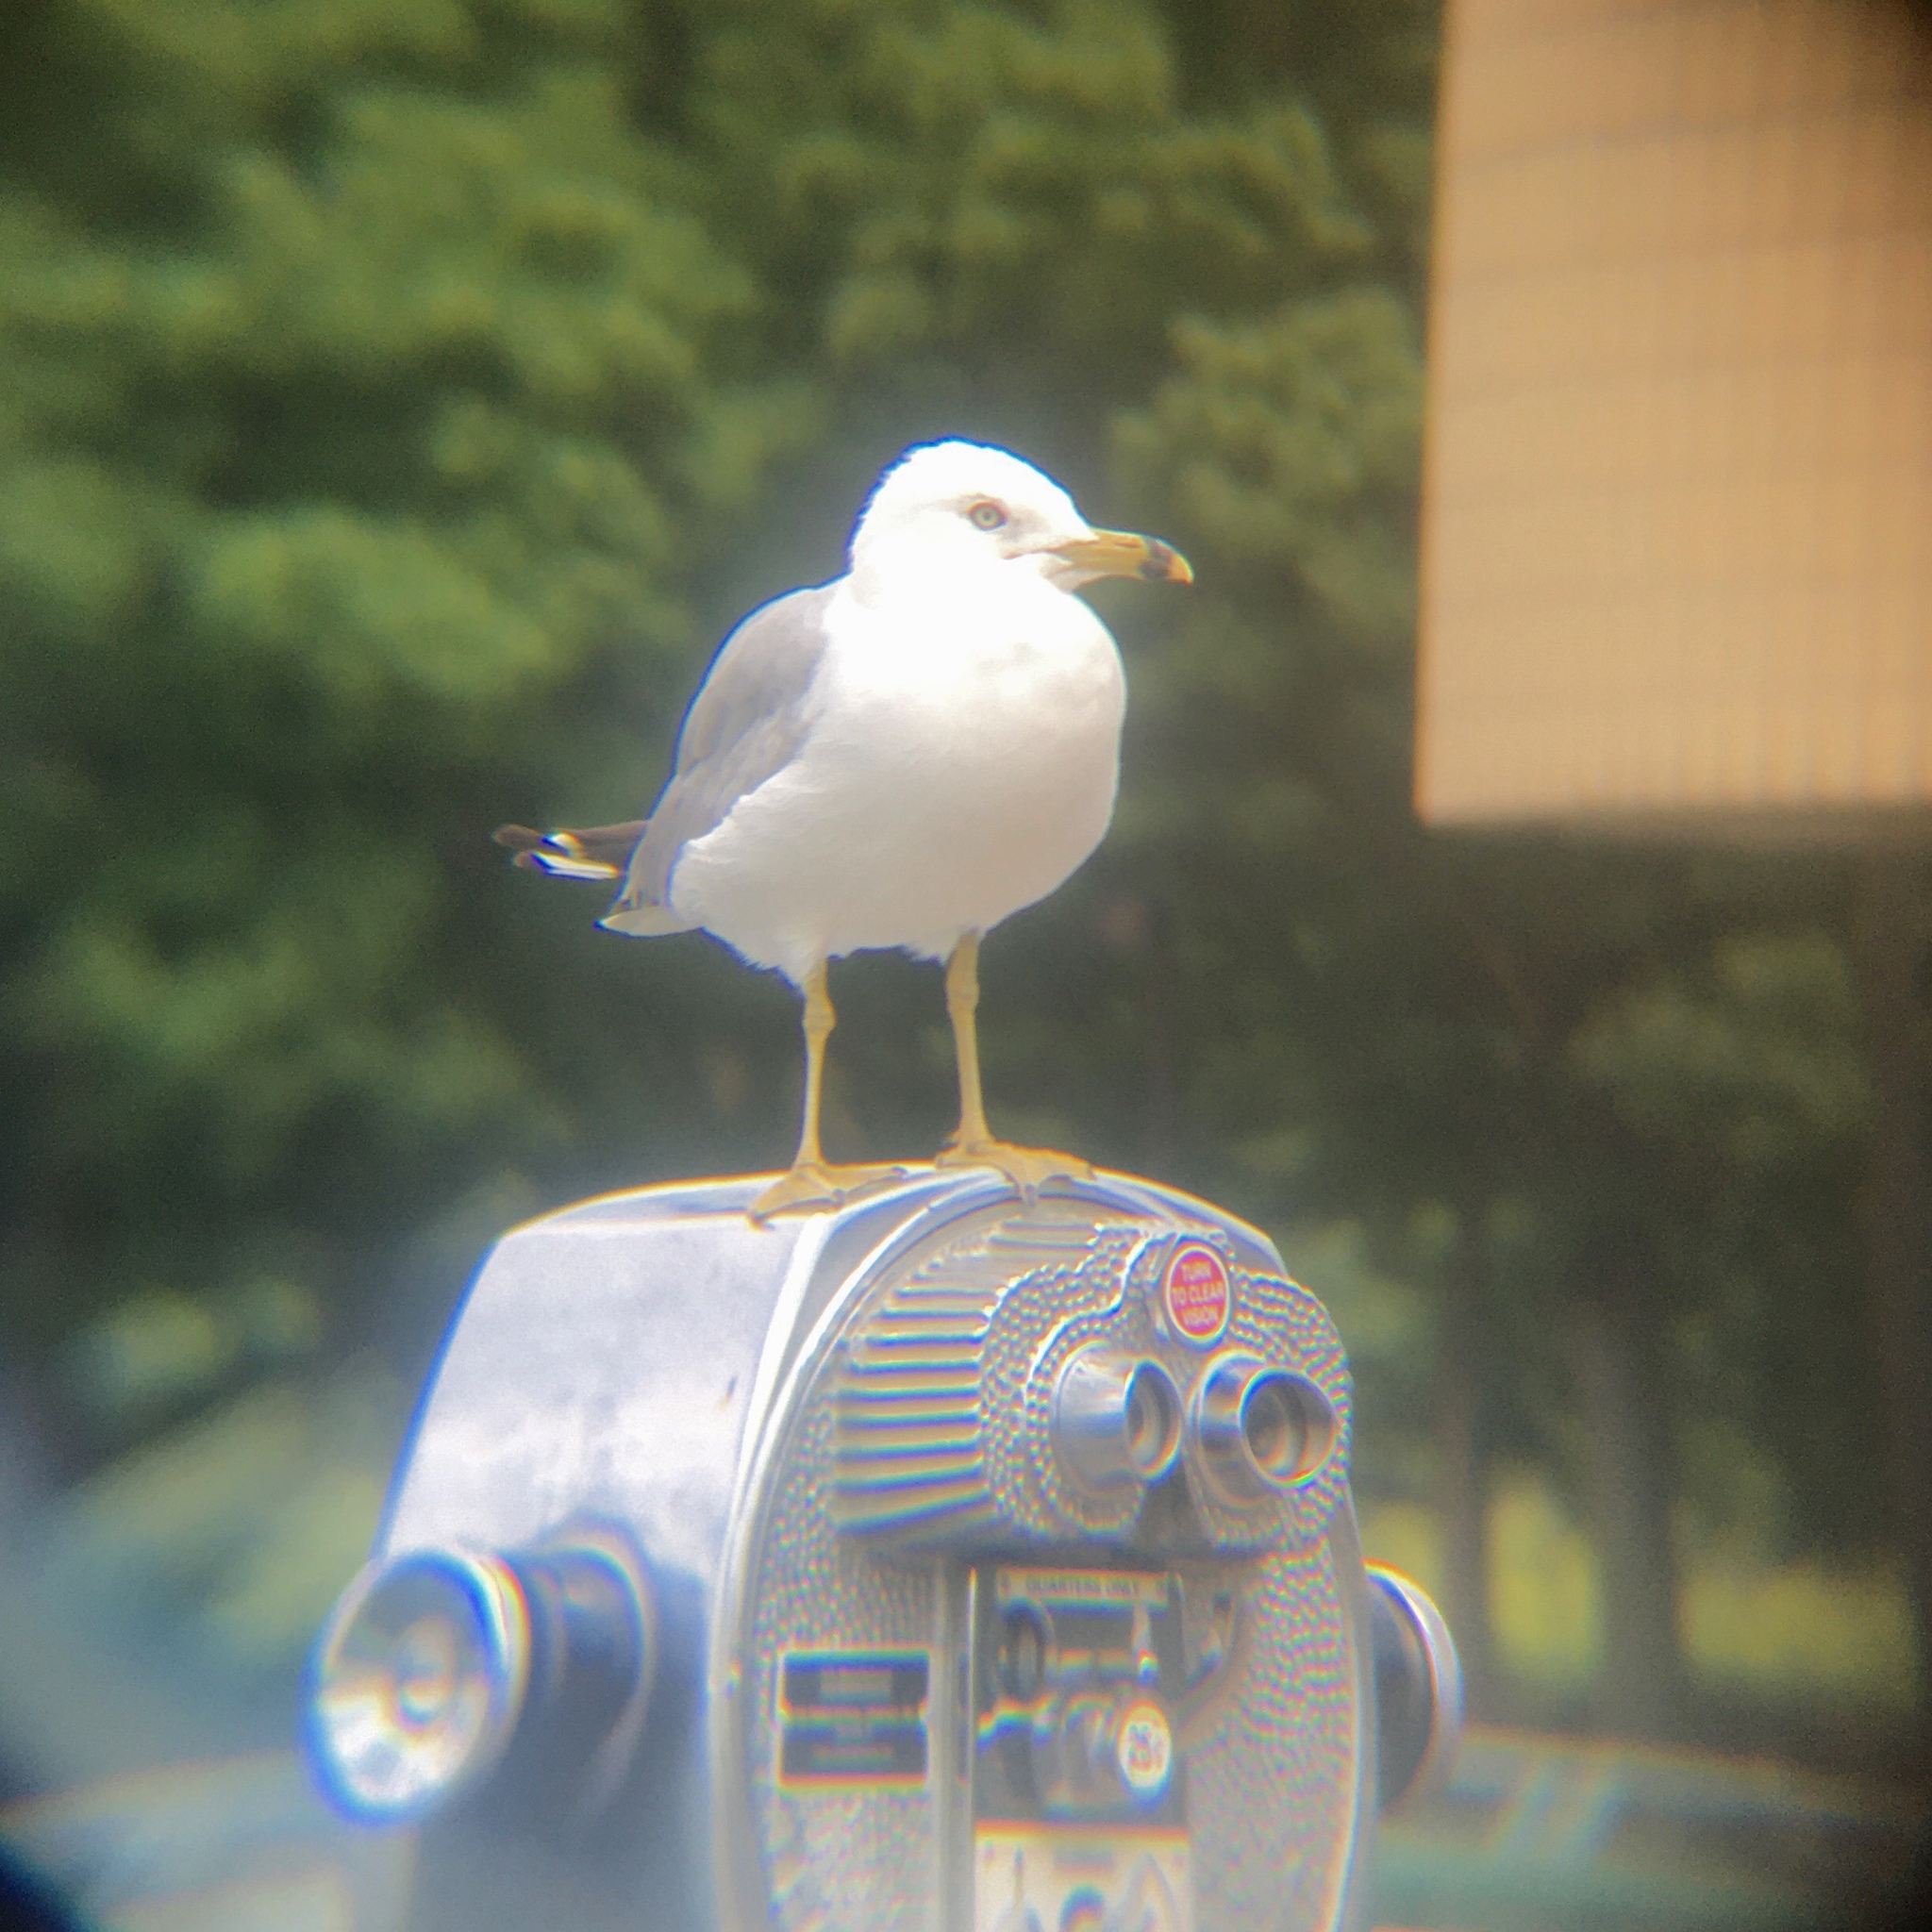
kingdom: Animalia
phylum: Chordata
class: Aves
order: Charadriiformes
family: Laridae
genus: Larus
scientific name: Larus delawarensis
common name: Ring-billed gull
